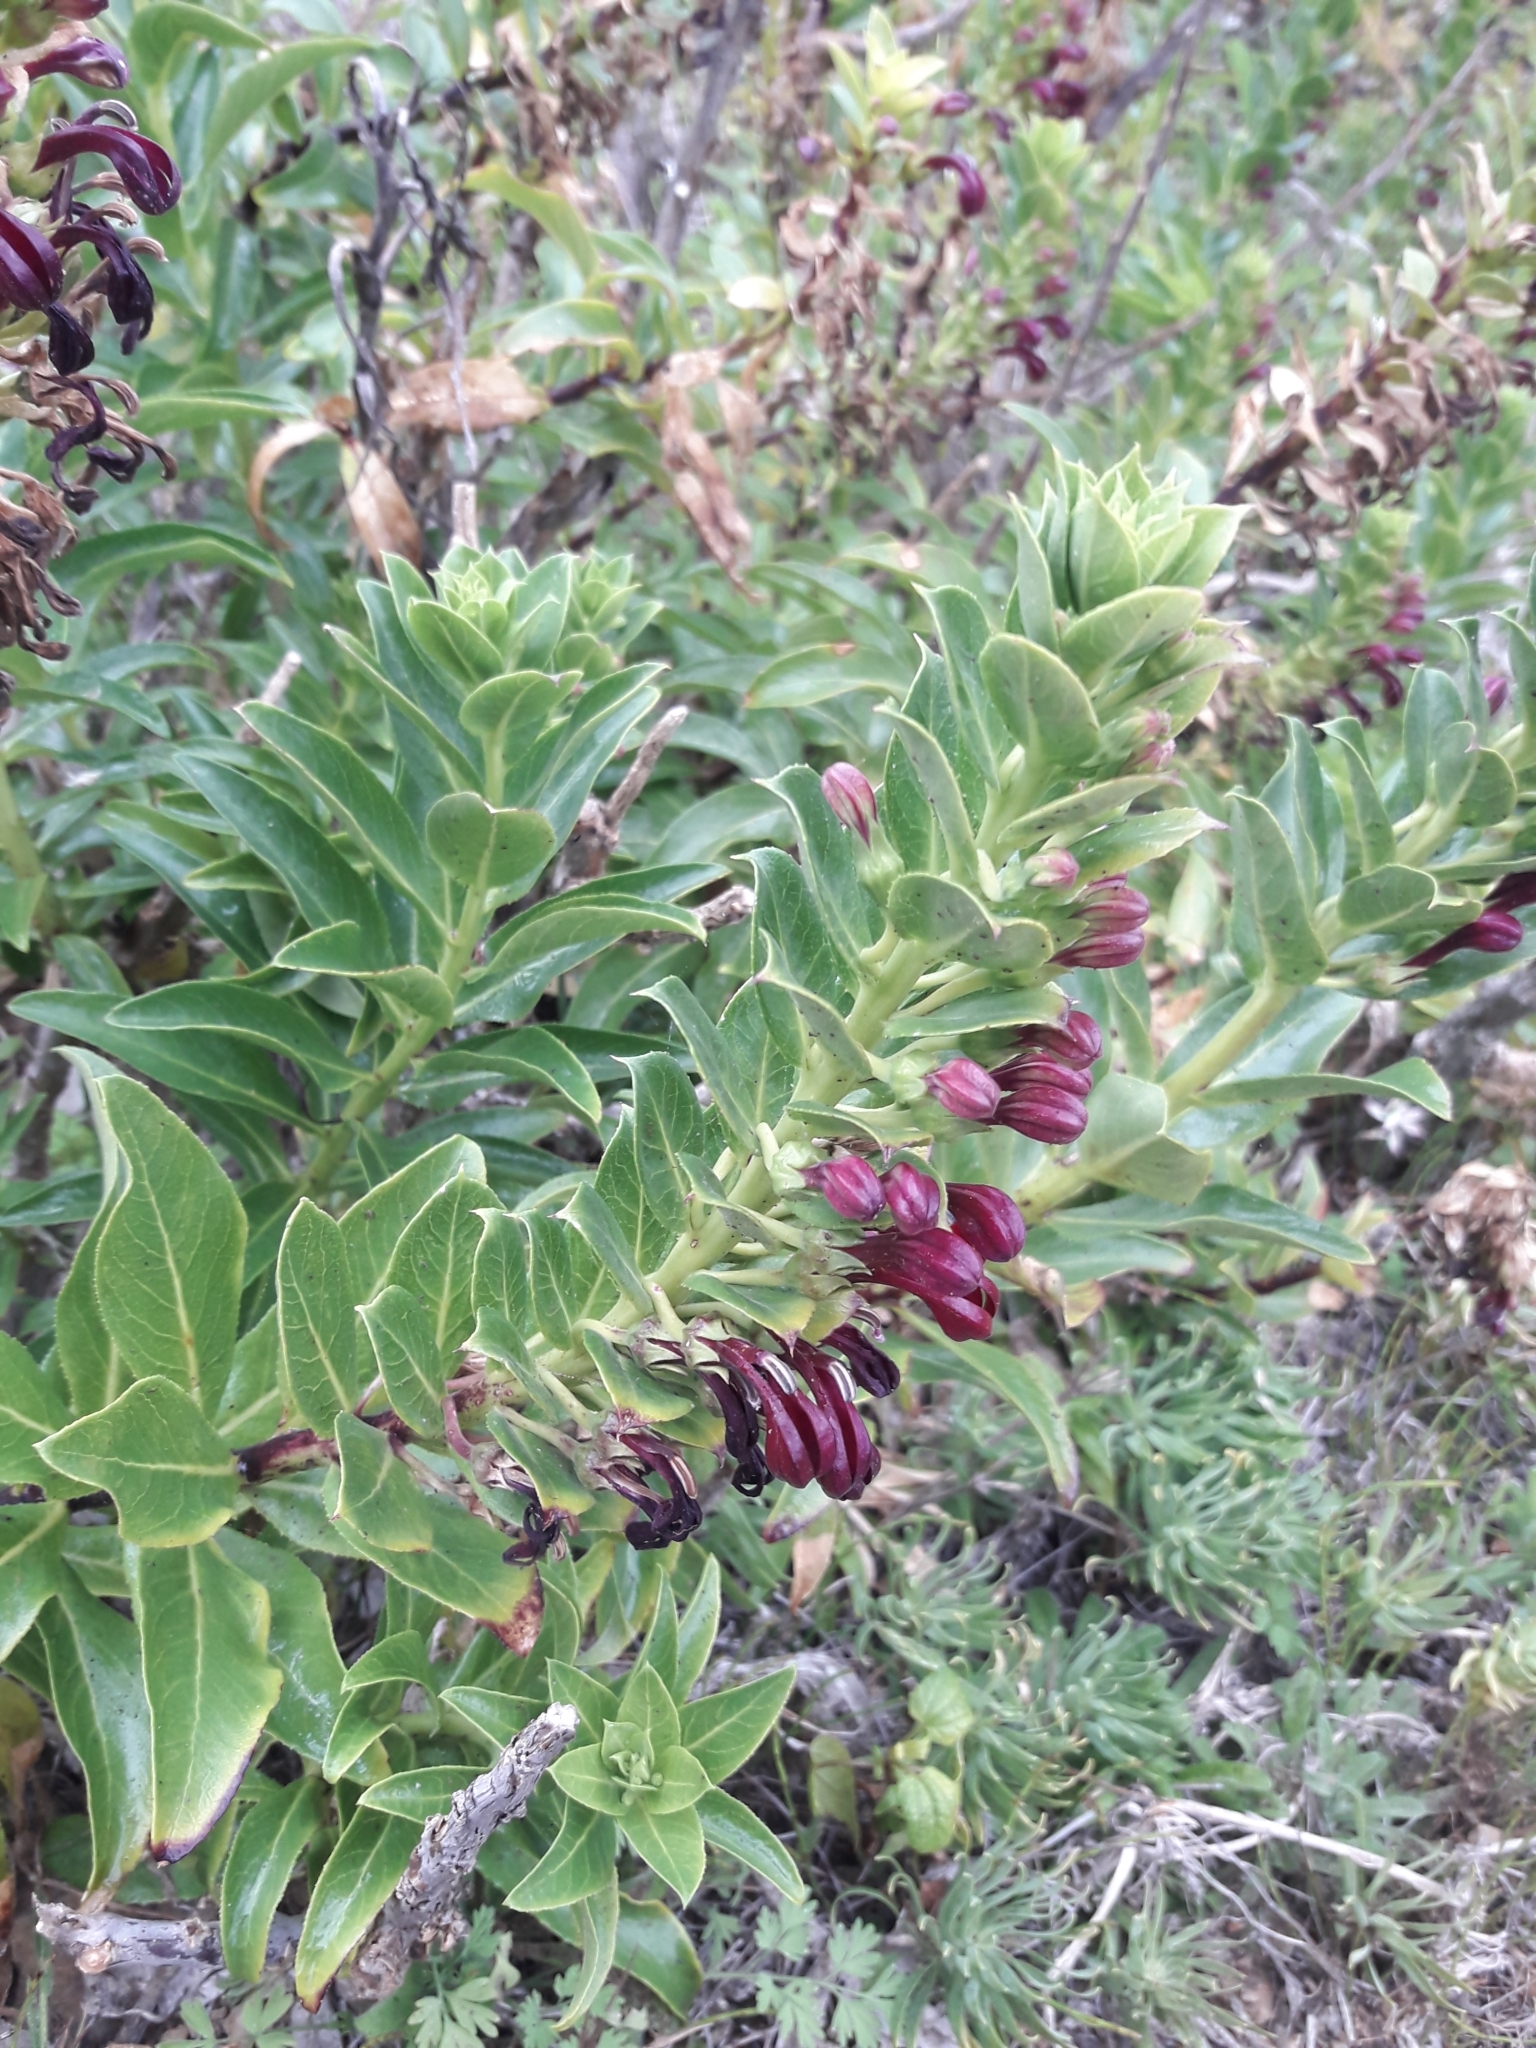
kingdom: Plantae
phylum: Tracheophyta
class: Magnoliopsida
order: Asterales
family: Campanulaceae
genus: Lobelia
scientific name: Lobelia polyphylla
